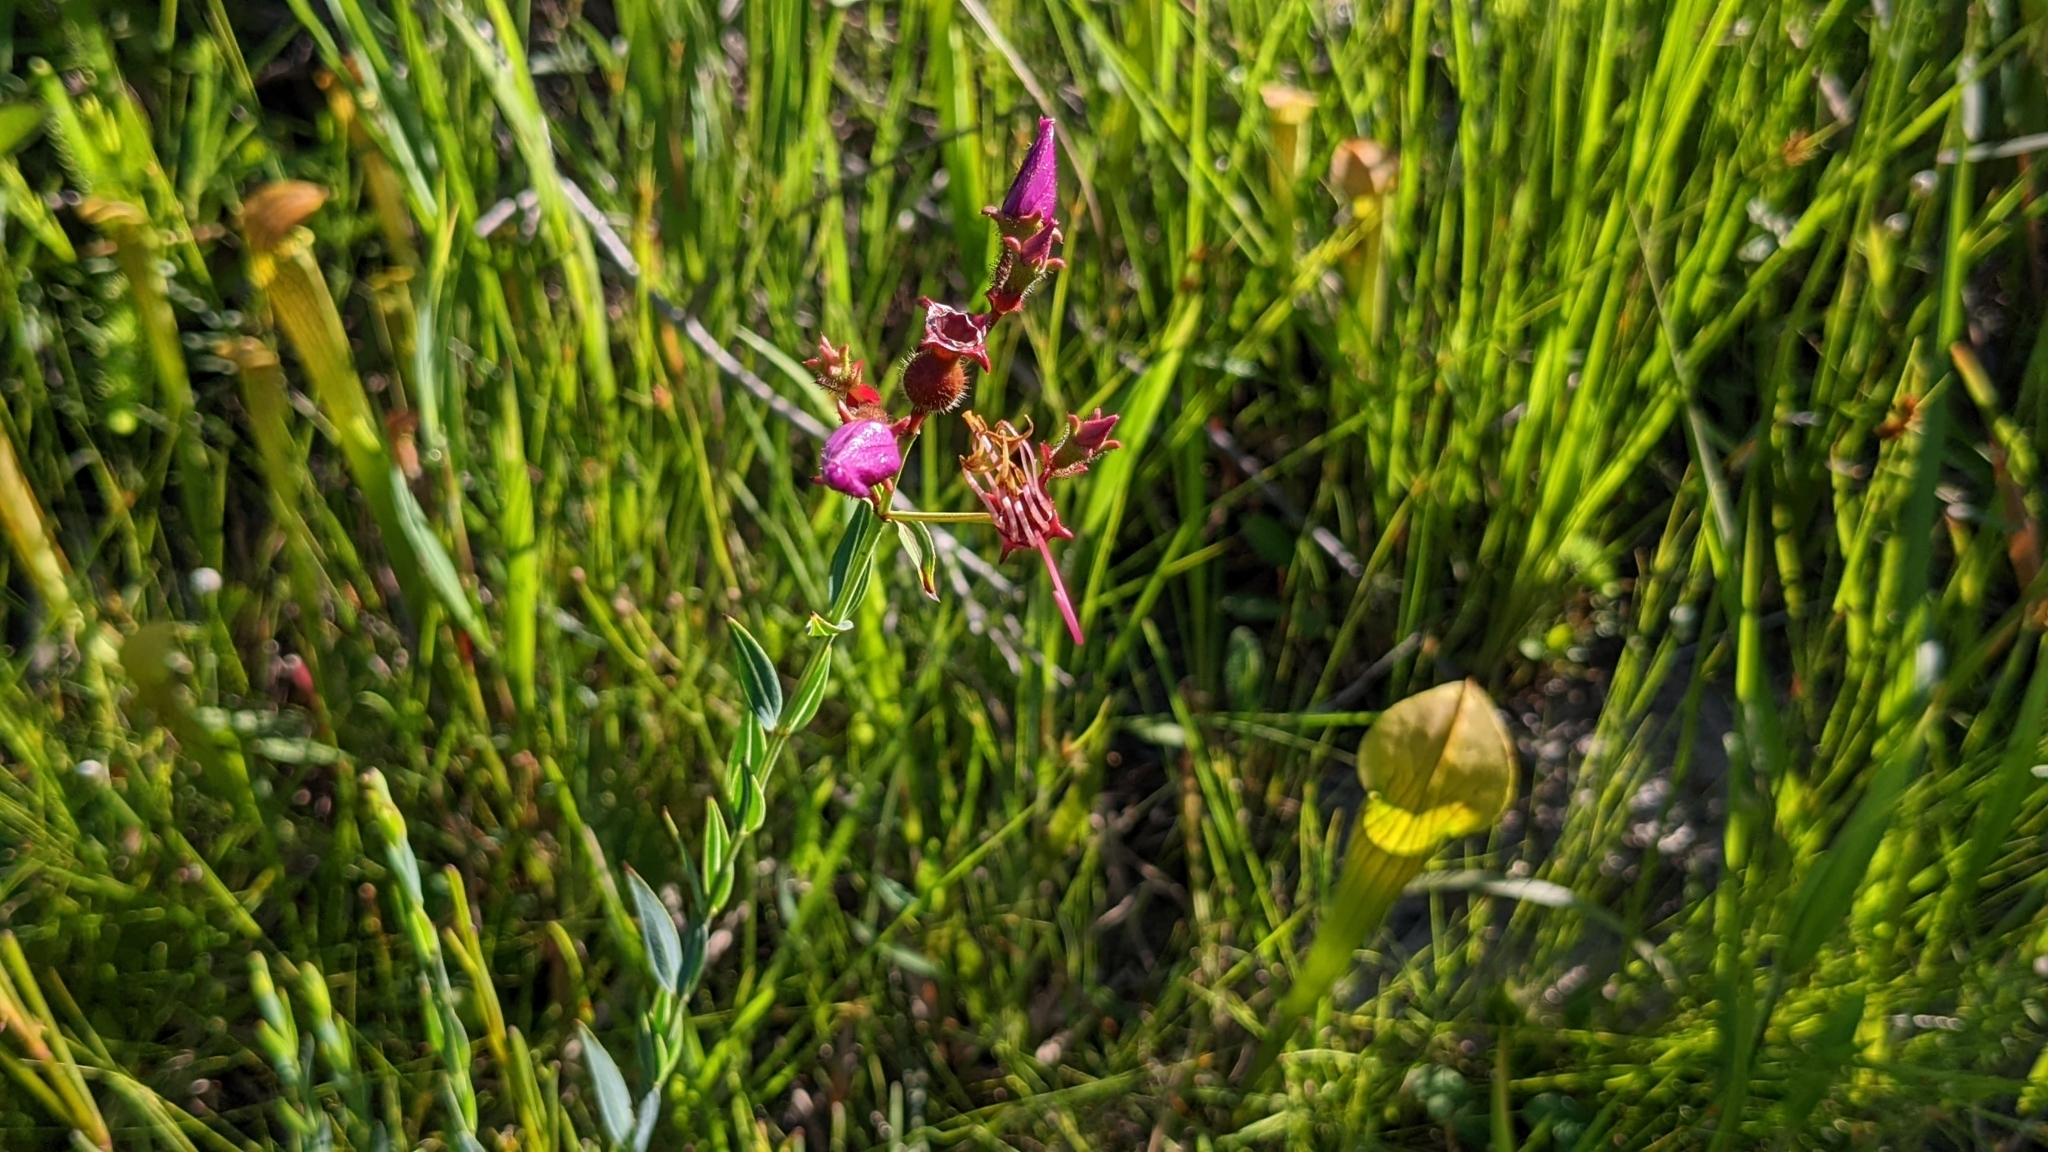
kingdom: Plantae
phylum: Tracheophyta
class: Magnoliopsida
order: Myrtales
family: Melastomataceae
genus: Rhexia
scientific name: Rhexia alifanus
